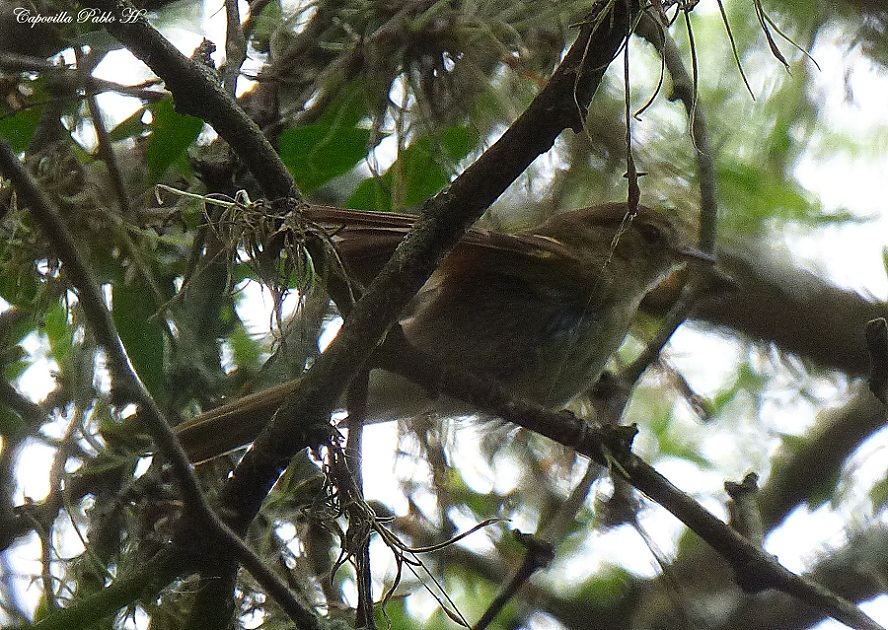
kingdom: Animalia
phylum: Chordata
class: Aves
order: Passeriformes
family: Tyrannidae
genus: Lathrotriccus
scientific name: Lathrotriccus euleri
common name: Euler's flycatcher
